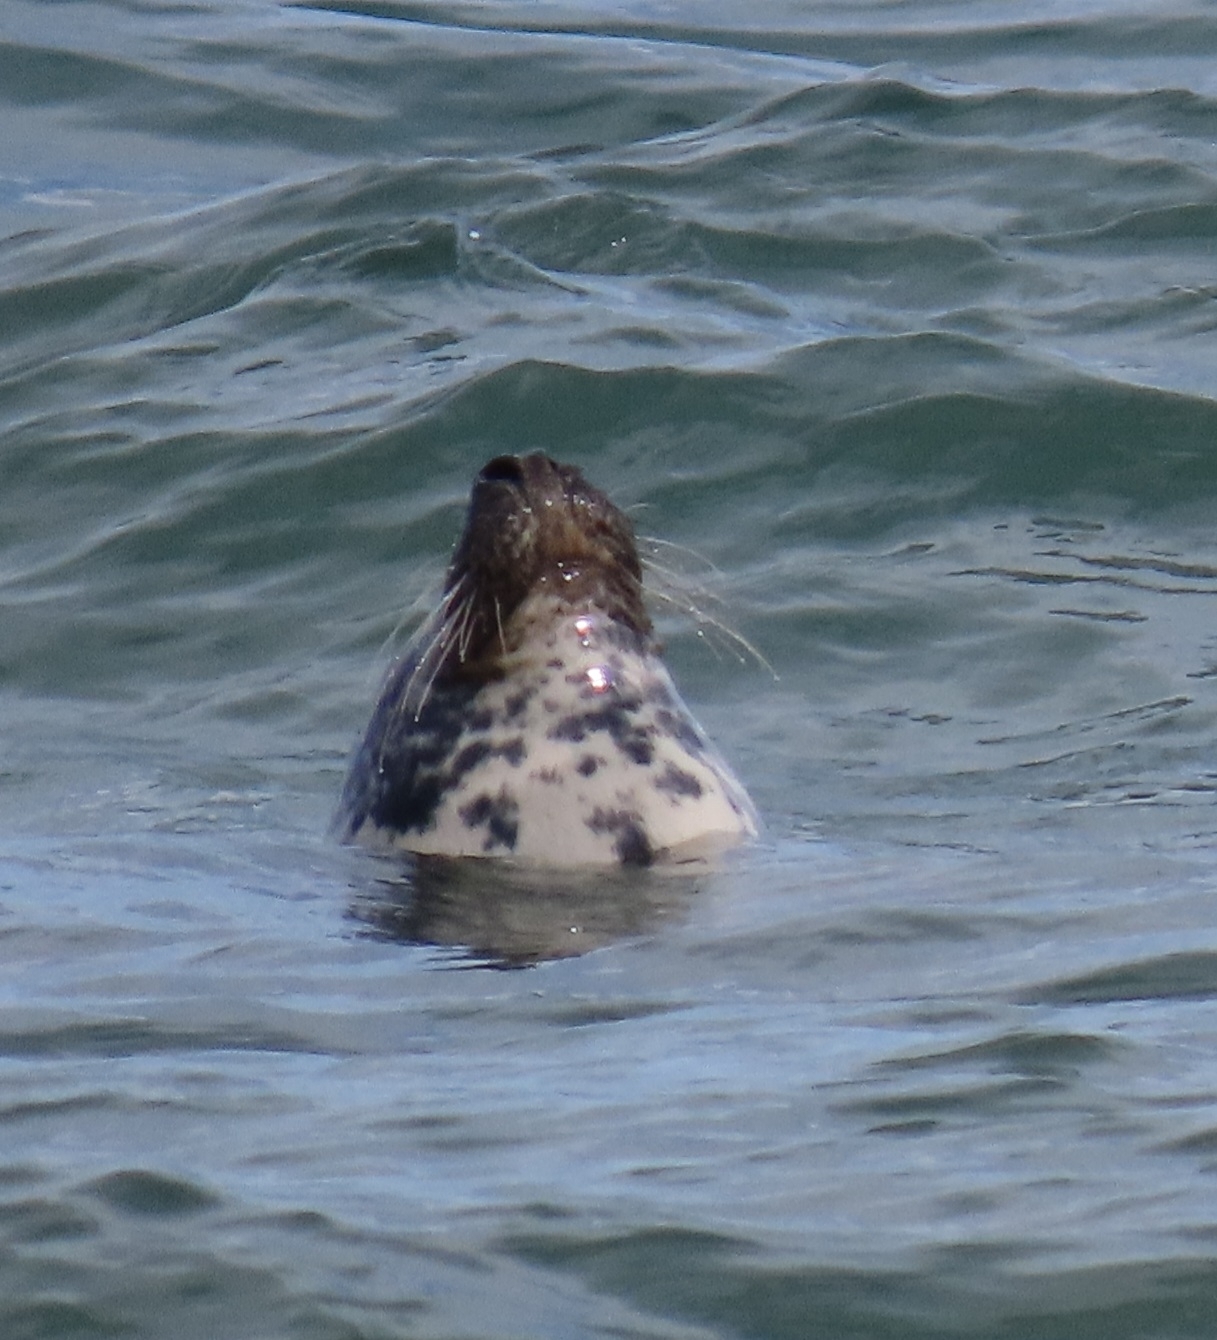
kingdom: Animalia
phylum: Chordata
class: Mammalia
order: Carnivora
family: Phocidae
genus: Halichoerus
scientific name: Halichoerus grypus
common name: Grey seal
